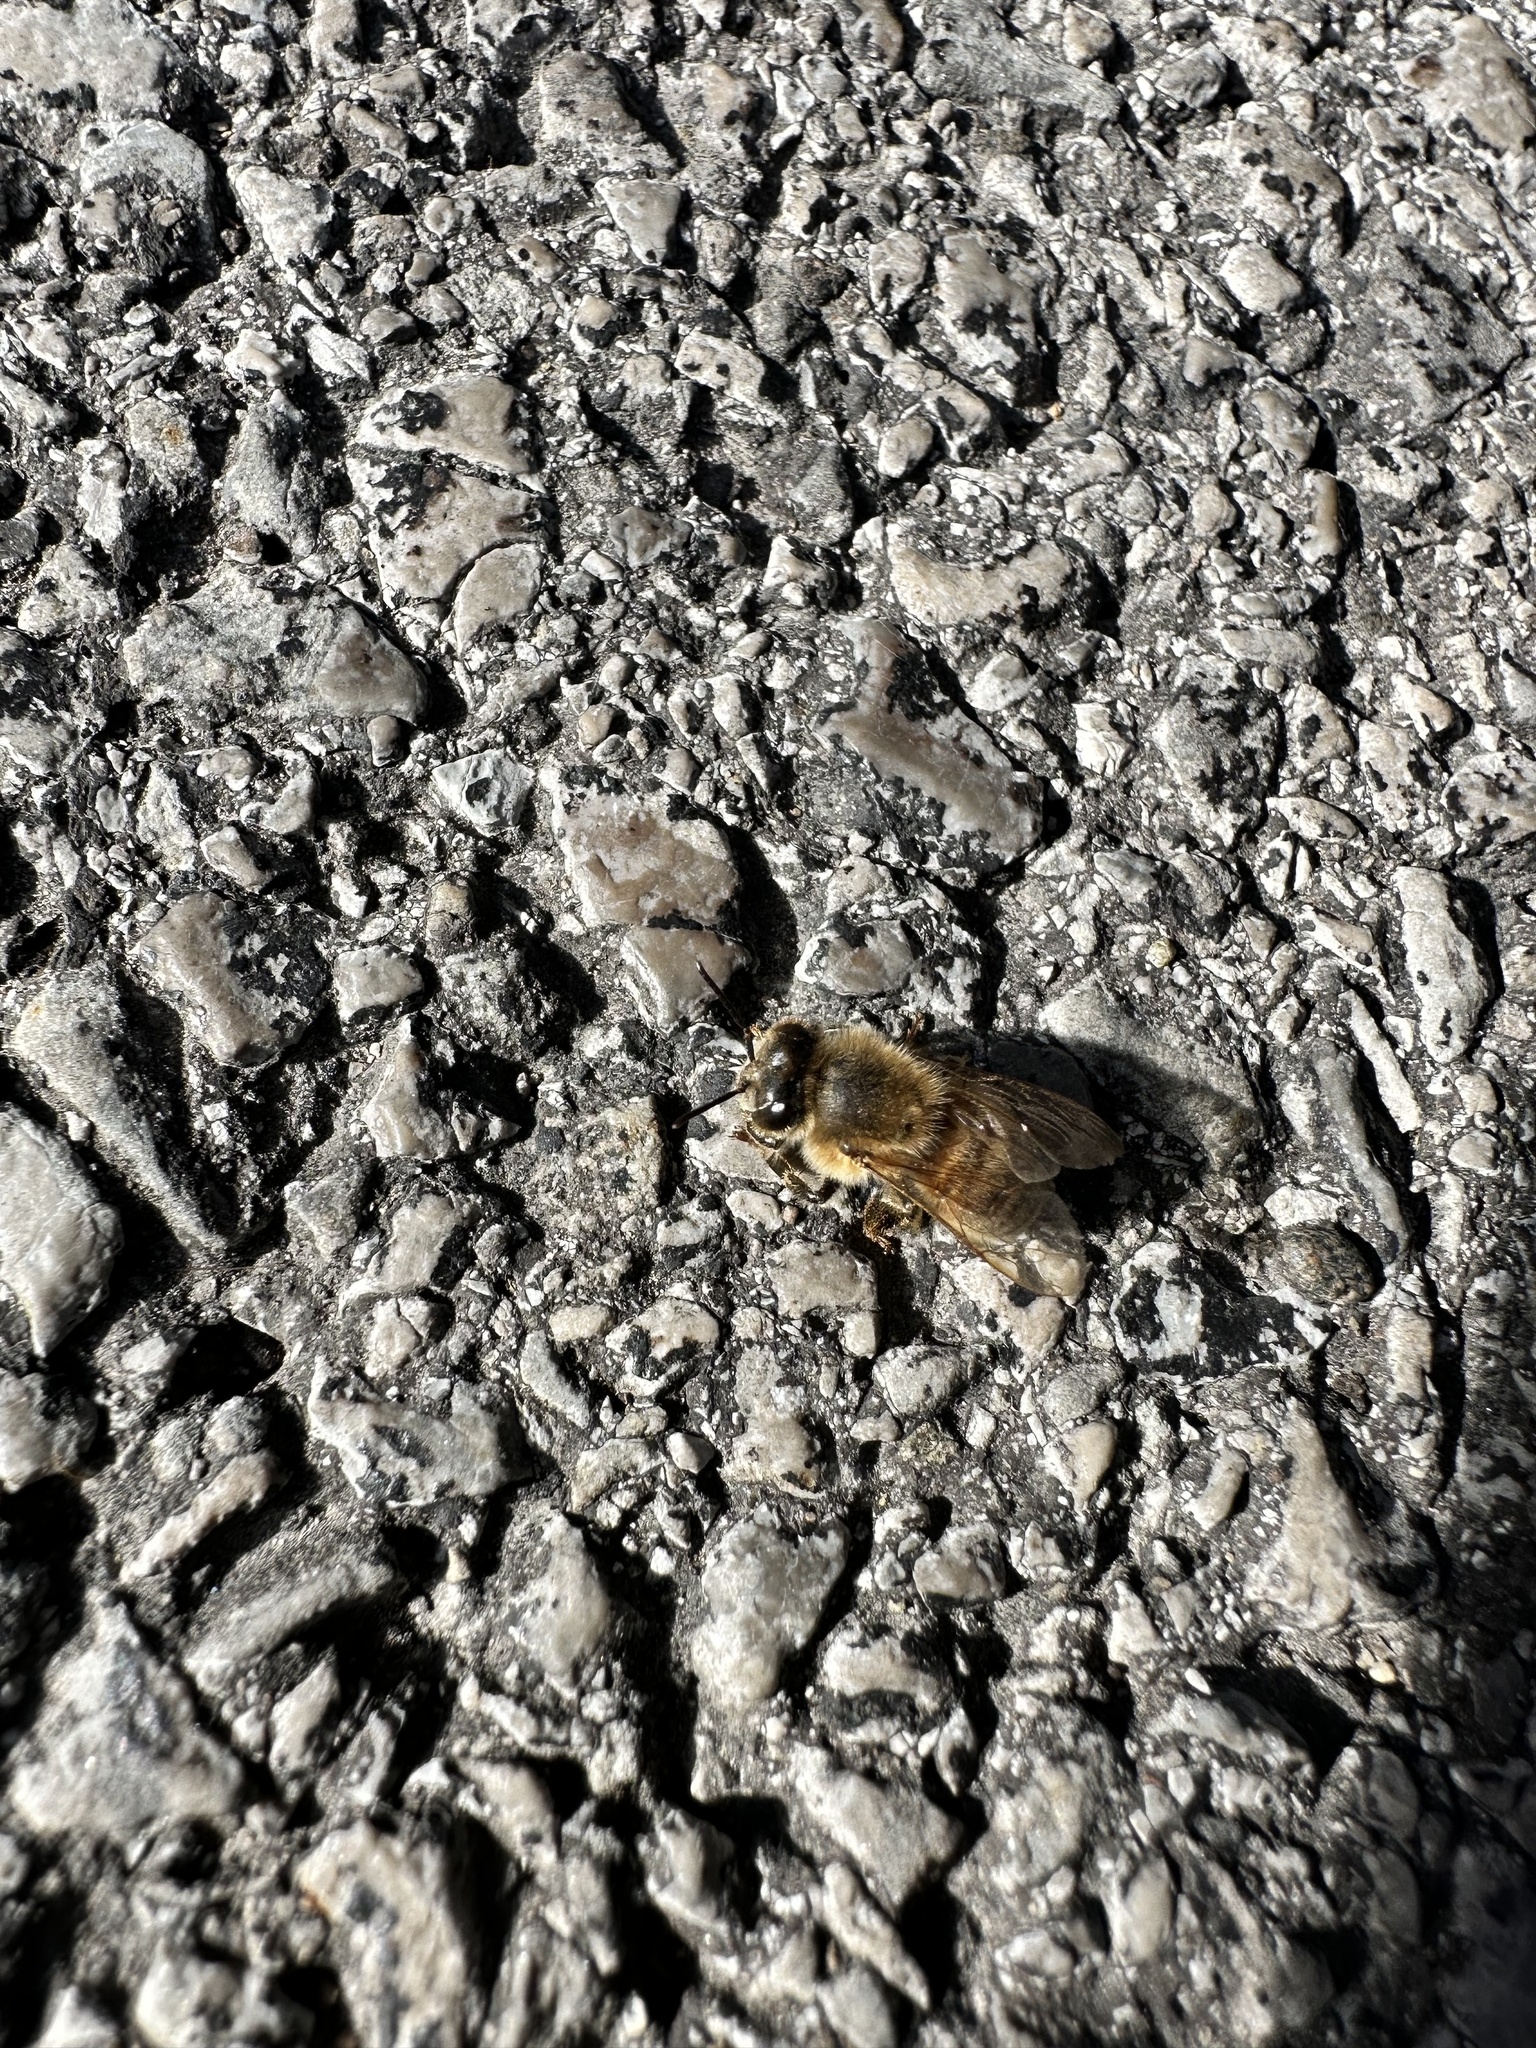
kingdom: Animalia
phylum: Arthropoda
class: Insecta
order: Hymenoptera
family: Apidae
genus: Apis
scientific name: Apis mellifera
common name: Honey bee
